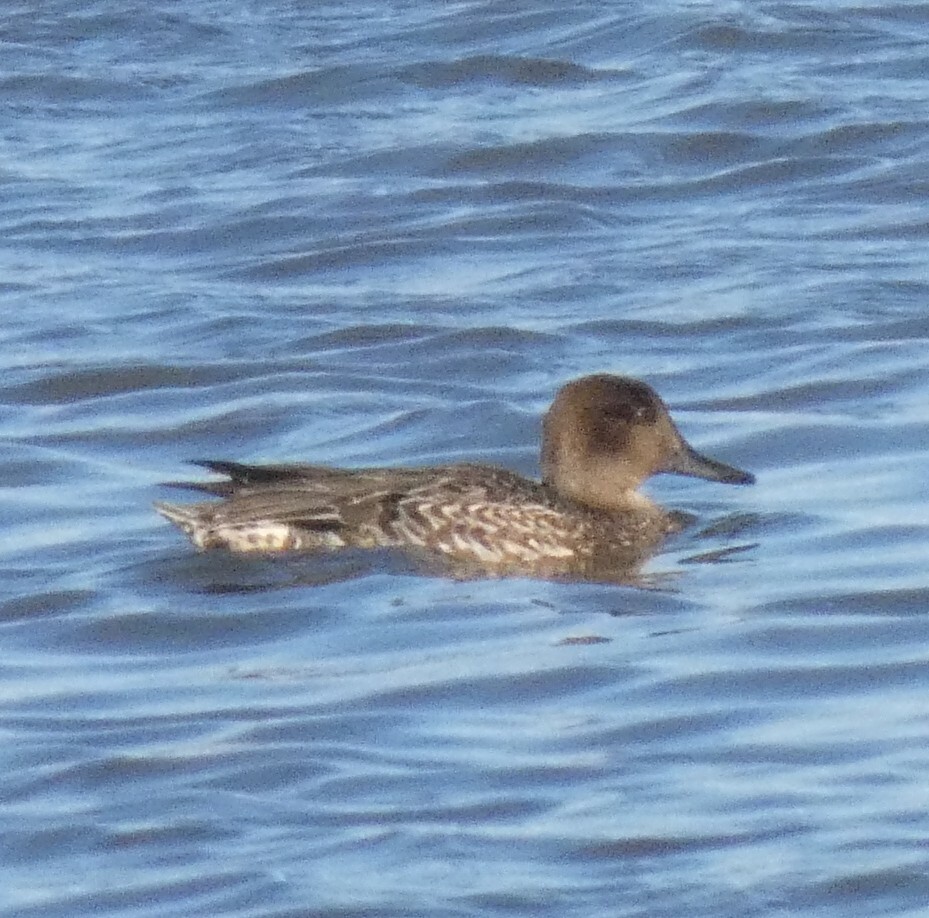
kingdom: Animalia
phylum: Chordata
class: Aves
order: Anseriformes
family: Anatidae
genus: Anas
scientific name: Anas crecca
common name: Eurasian teal
